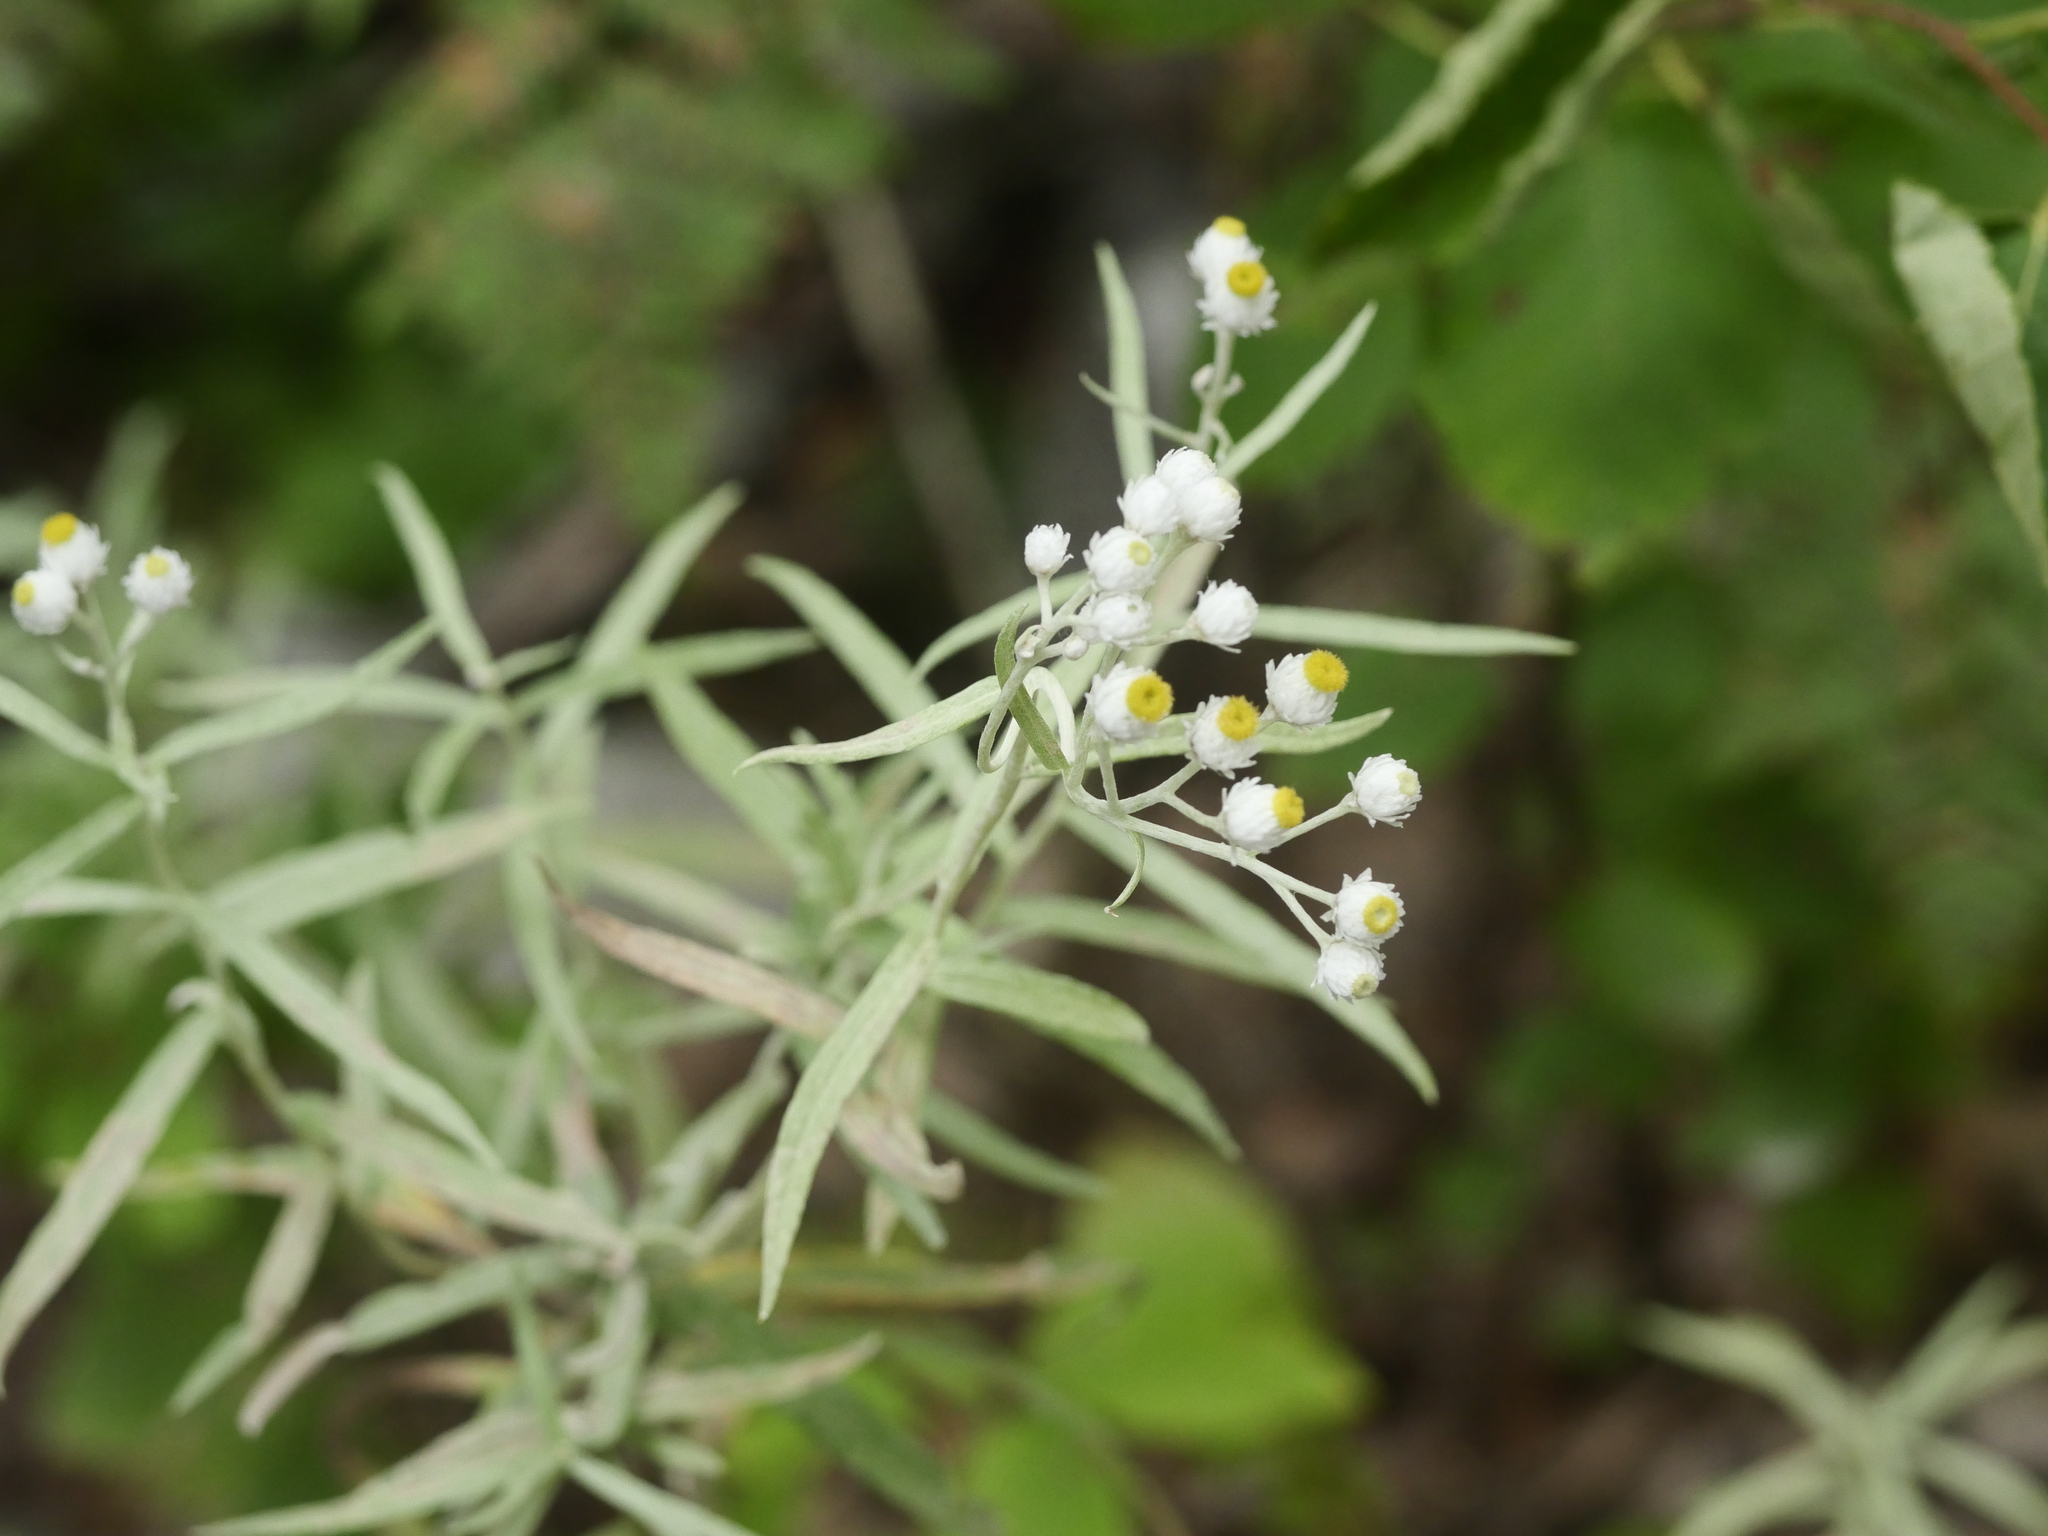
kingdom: Plantae
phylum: Tracheophyta
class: Magnoliopsida
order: Asterales
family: Asteraceae
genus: Anaphalis
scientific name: Anaphalis margaritacea
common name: Pearly everlasting
